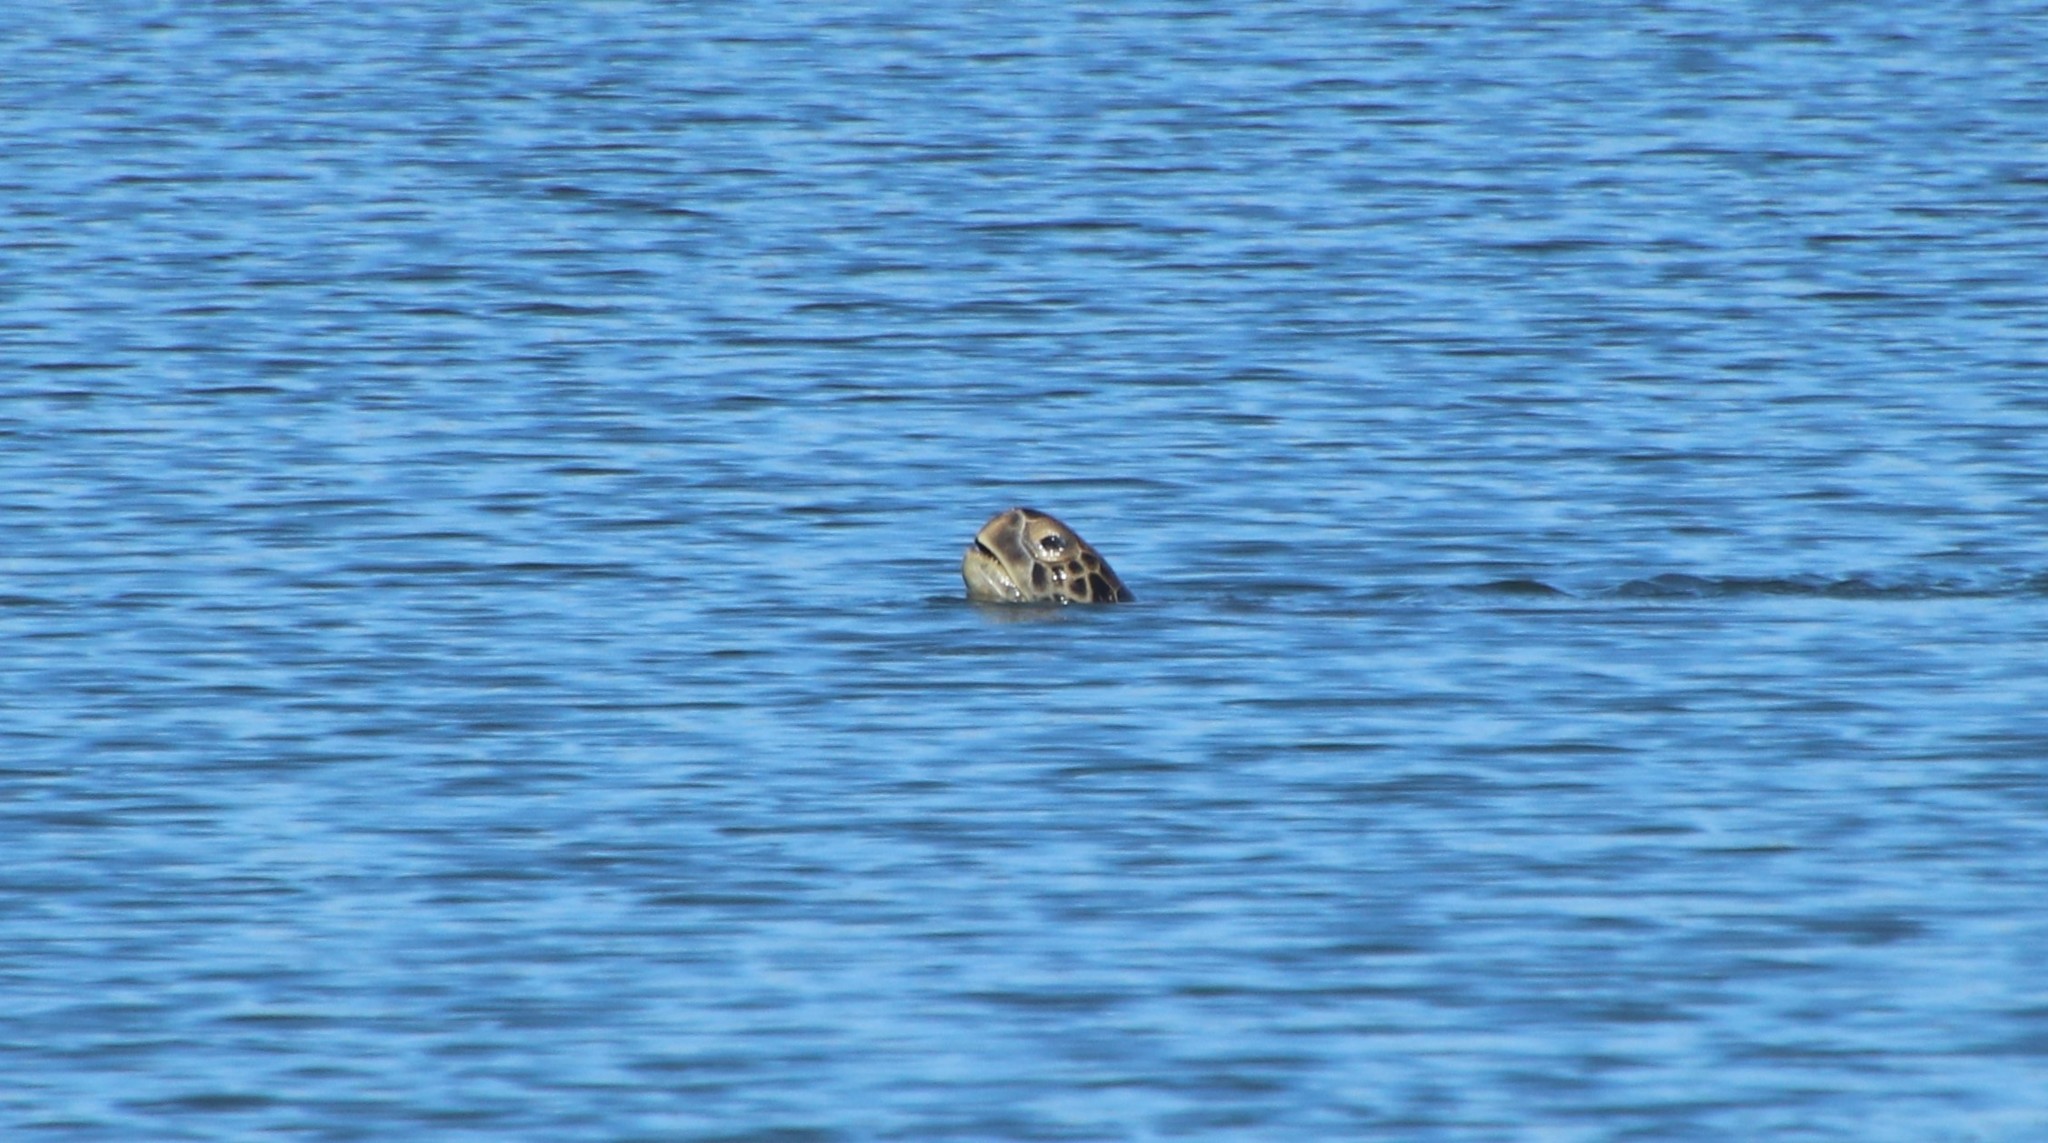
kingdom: Animalia
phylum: Chordata
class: Testudines
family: Cheloniidae
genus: Chelonia
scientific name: Chelonia mydas
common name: Green turtle
